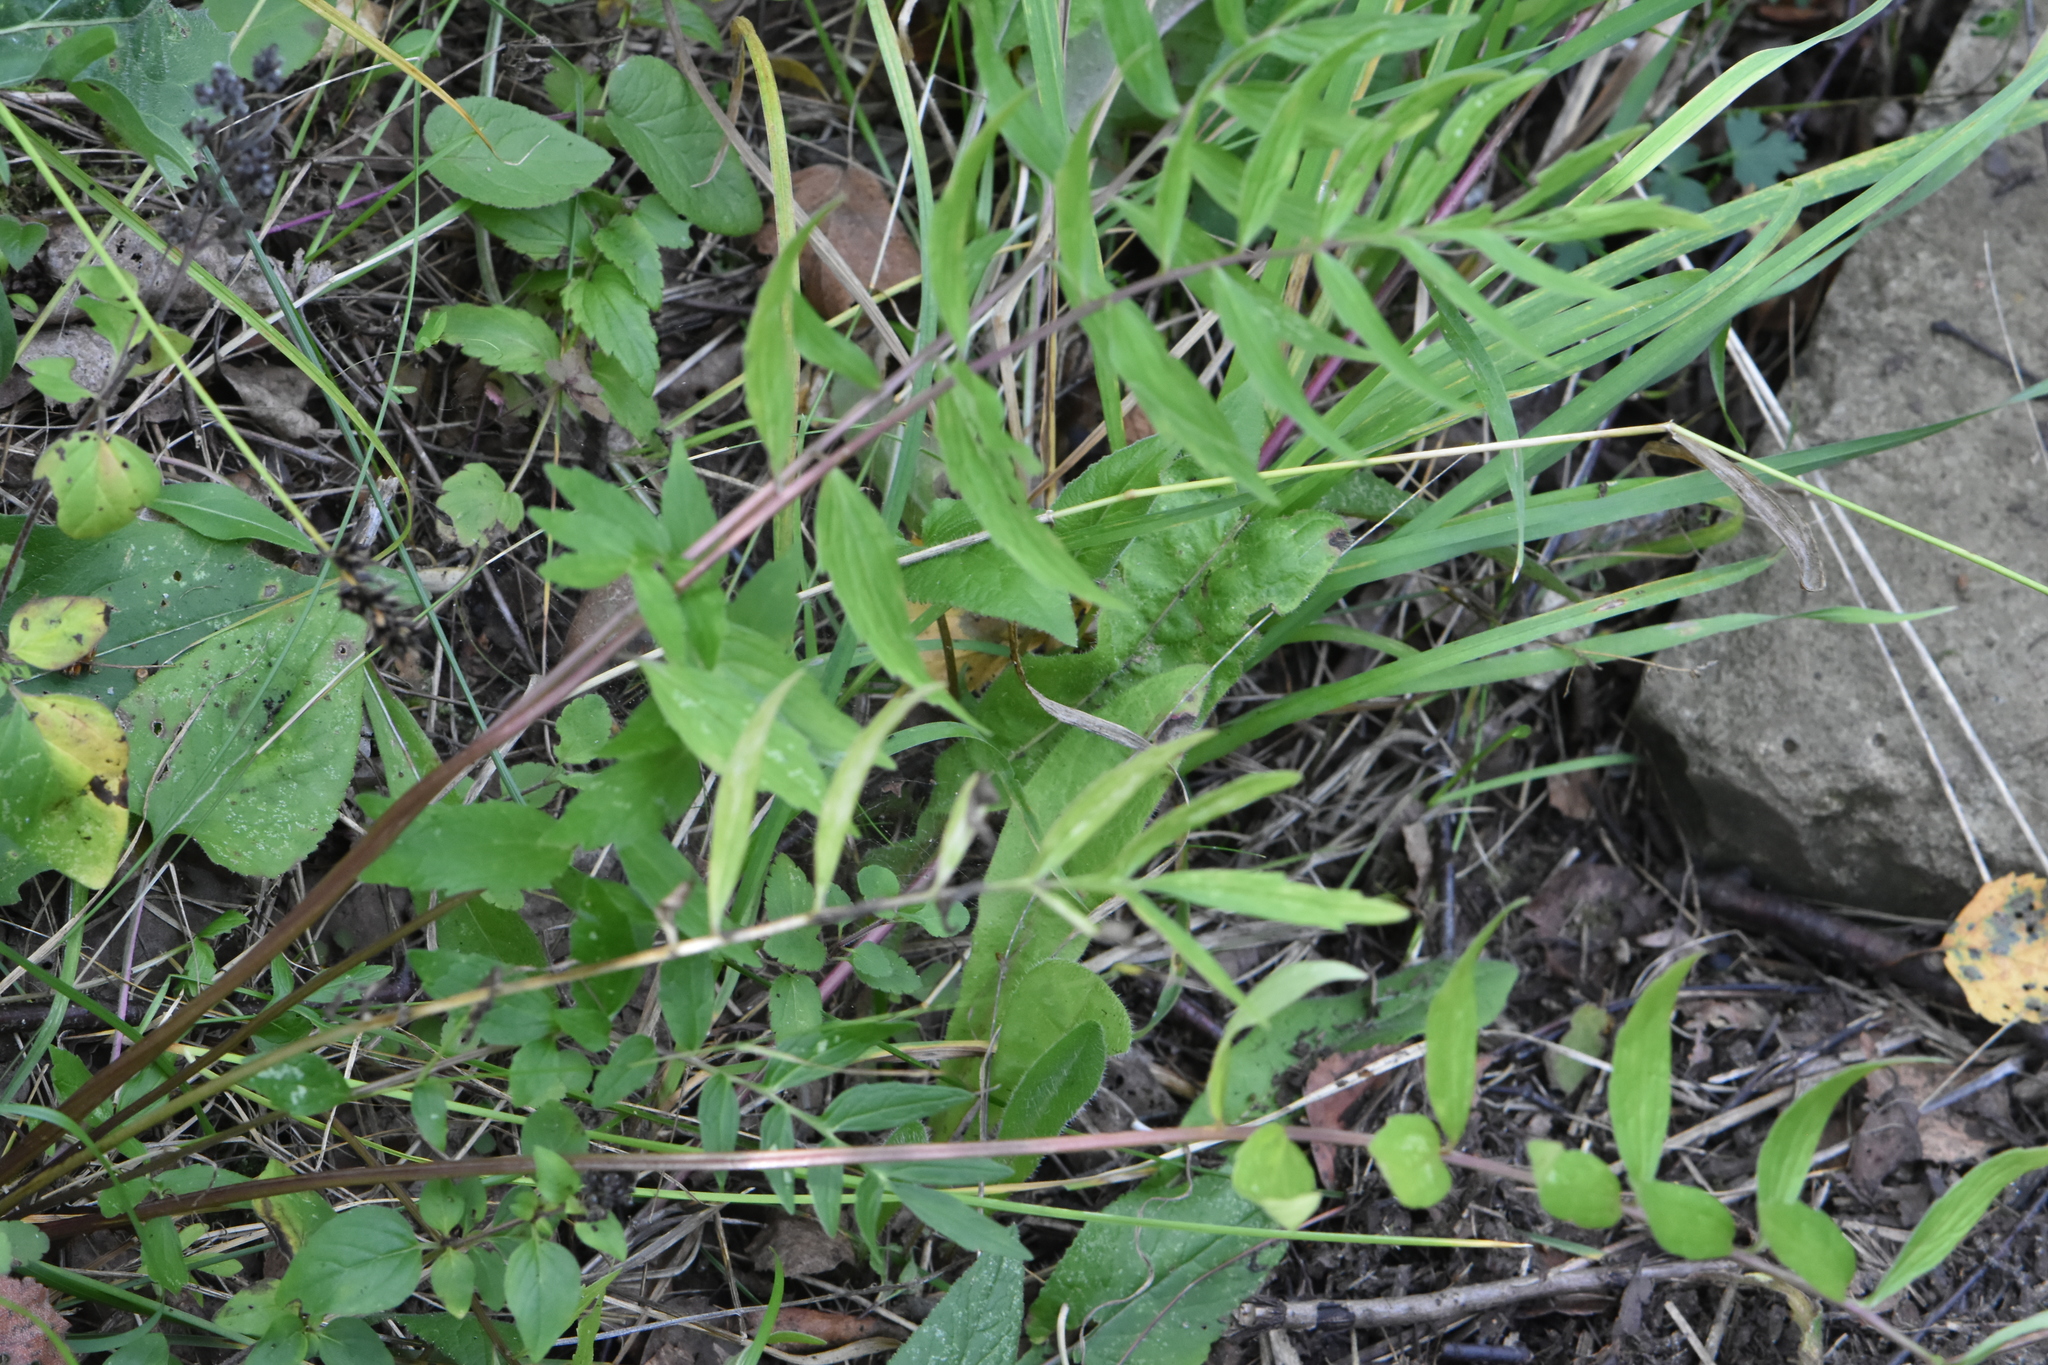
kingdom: Plantae
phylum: Tracheophyta
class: Magnoliopsida
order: Dipsacales
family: Caprifoliaceae
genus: Valeriana
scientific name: Valeriana officinalis
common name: Common valerian
